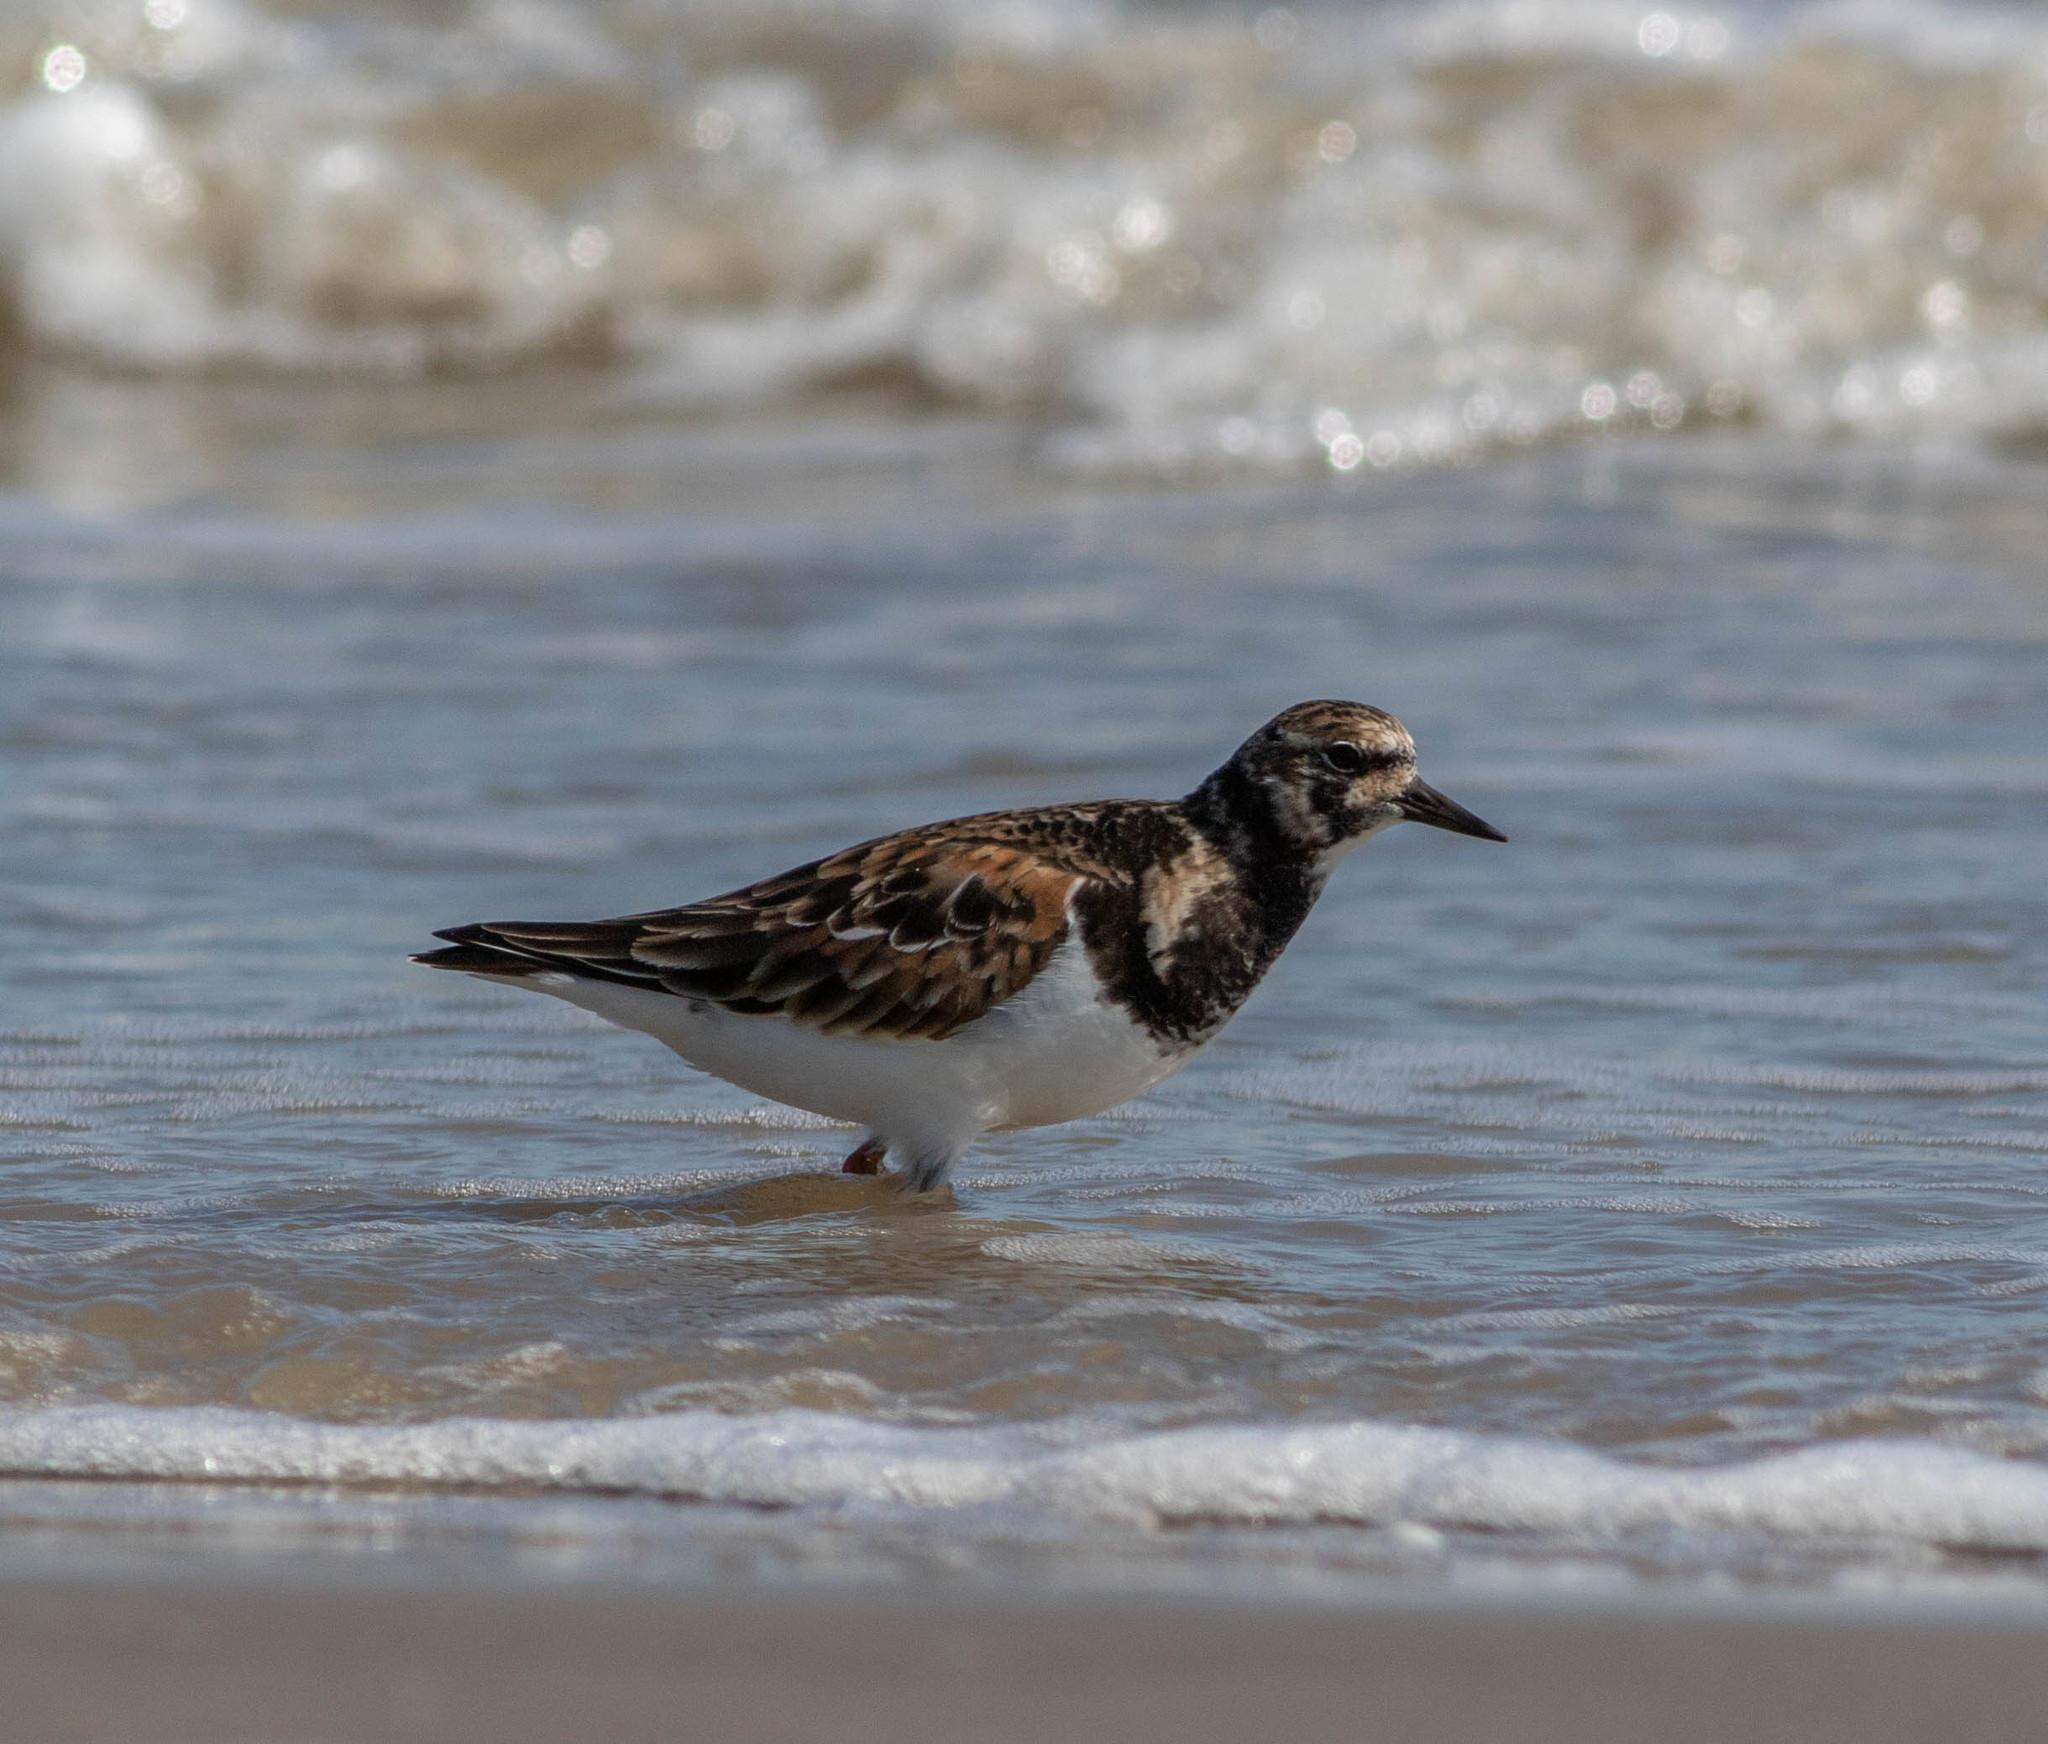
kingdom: Animalia
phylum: Chordata
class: Aves
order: Charadriiformes
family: Scolopacidae
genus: Arenaria
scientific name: Arenaria interpres
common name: Ruddy turnstone
